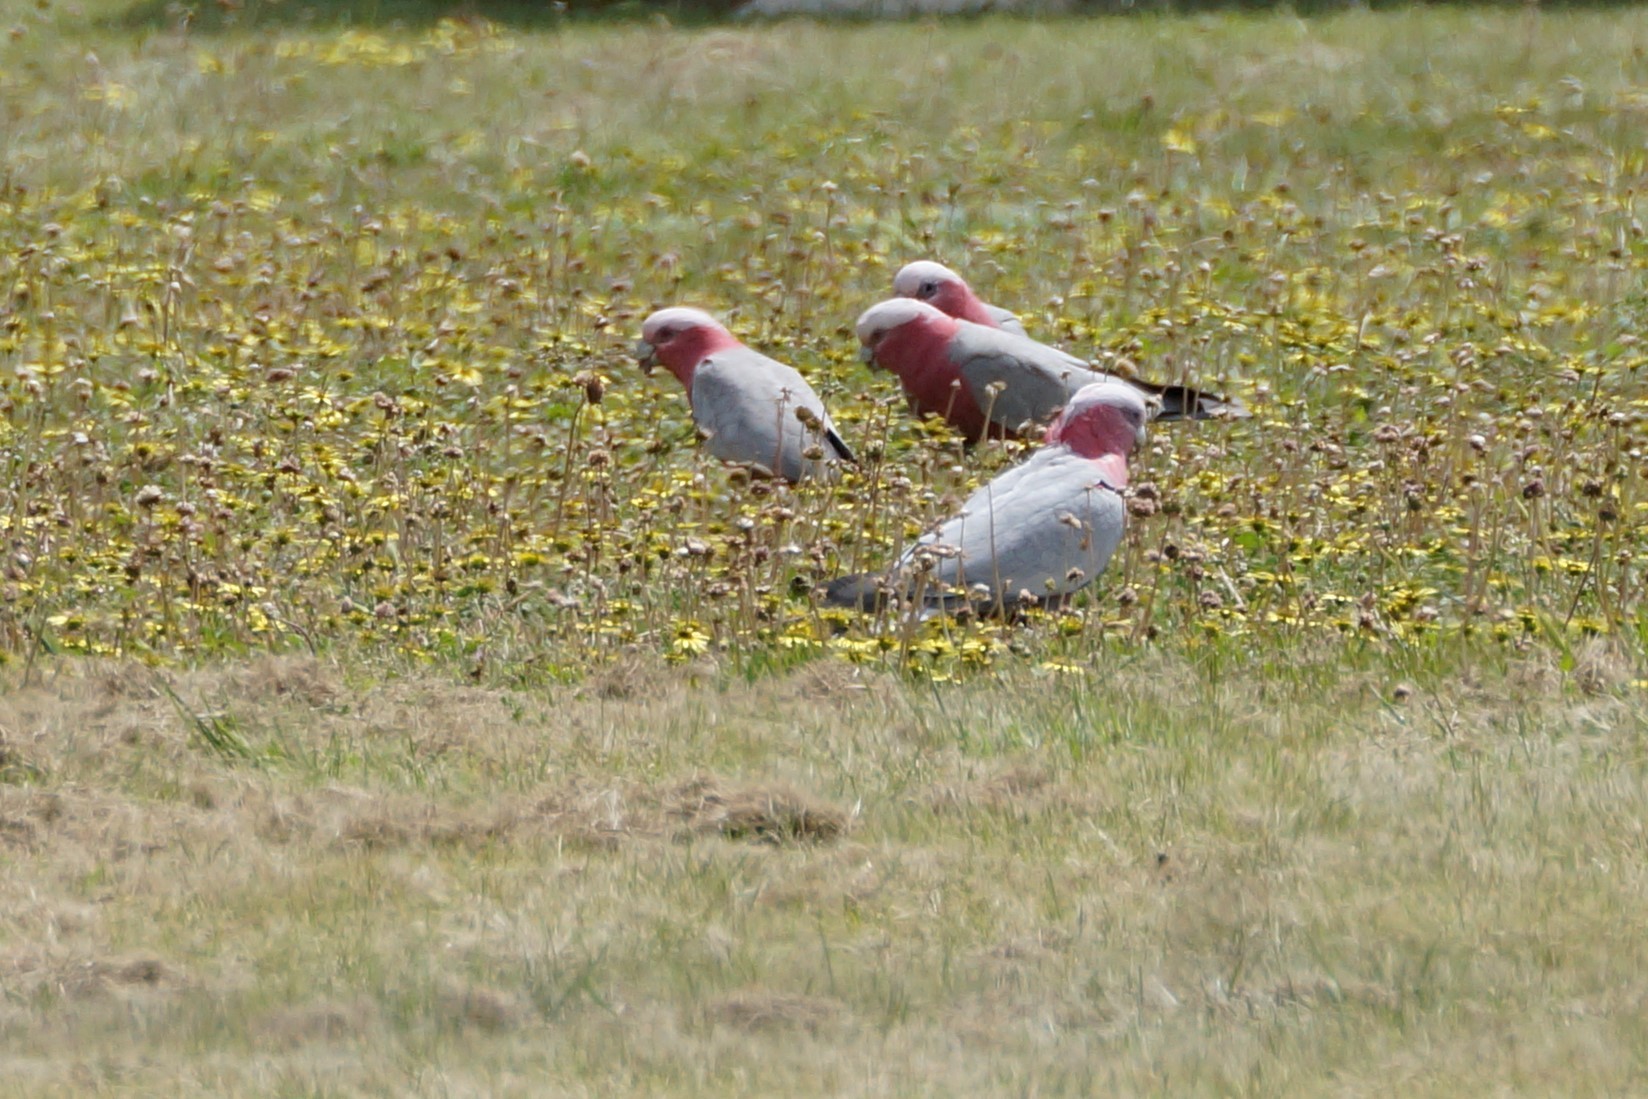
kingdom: Animalia
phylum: Chordata
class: Aves
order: Psittaciformes
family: Psittacidae
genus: Eolophus
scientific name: Eolophus roseicapilla
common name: Galah
